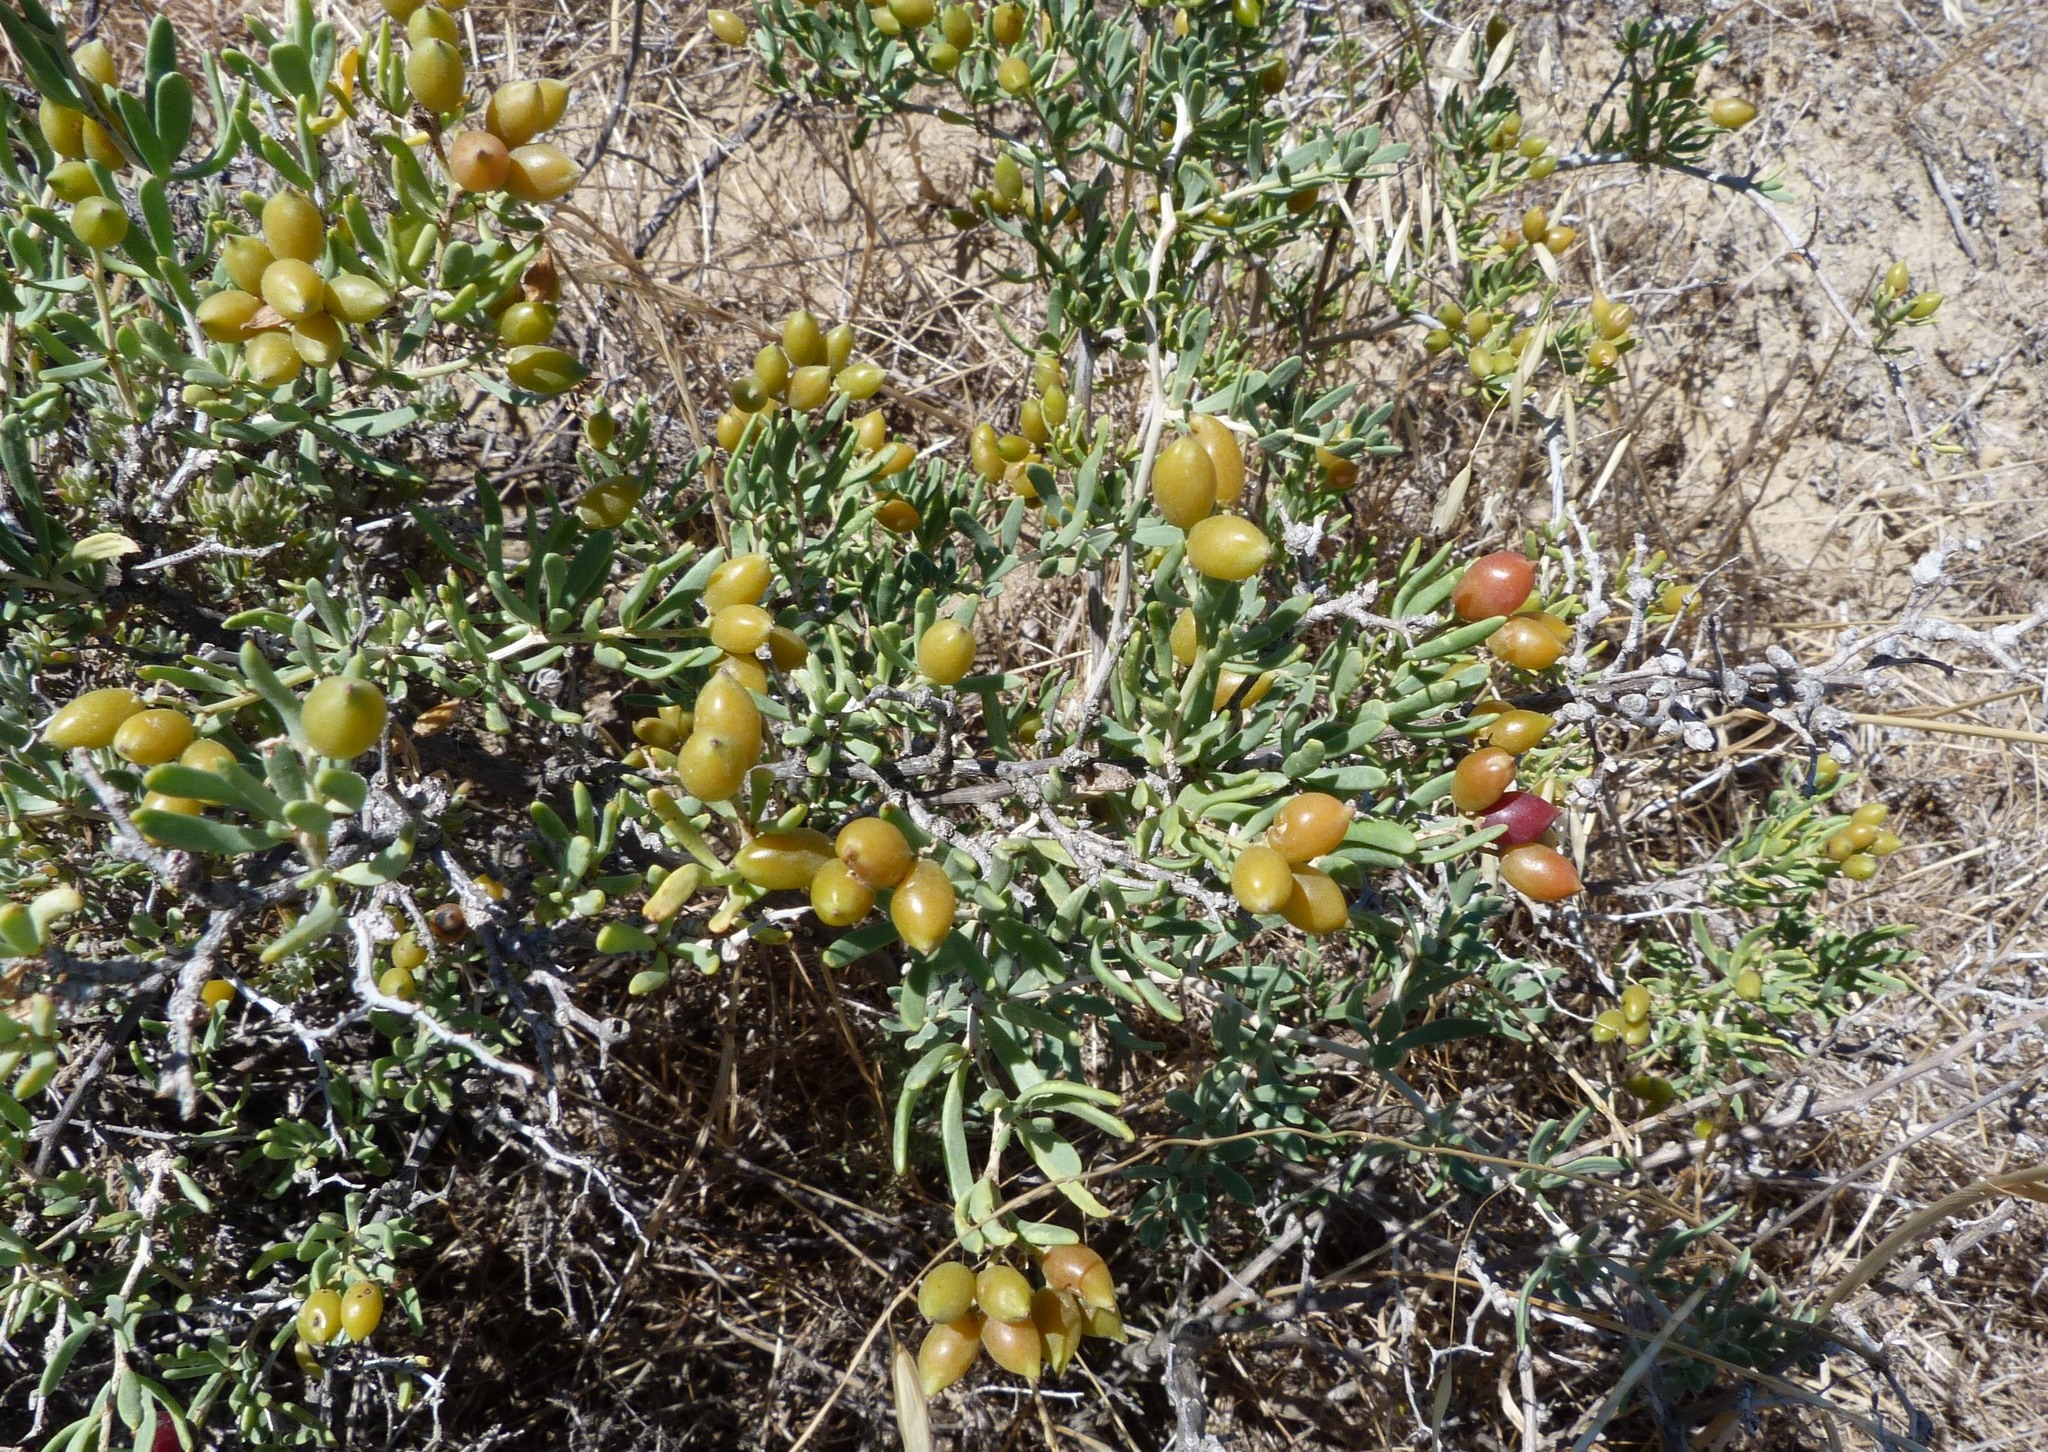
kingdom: Plantae
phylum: Tracheophyta
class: Magnoliopsida
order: Sapindales
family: Nitrariaceae
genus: Nitraria
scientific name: Nitraria billardierei
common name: Dillonbush
